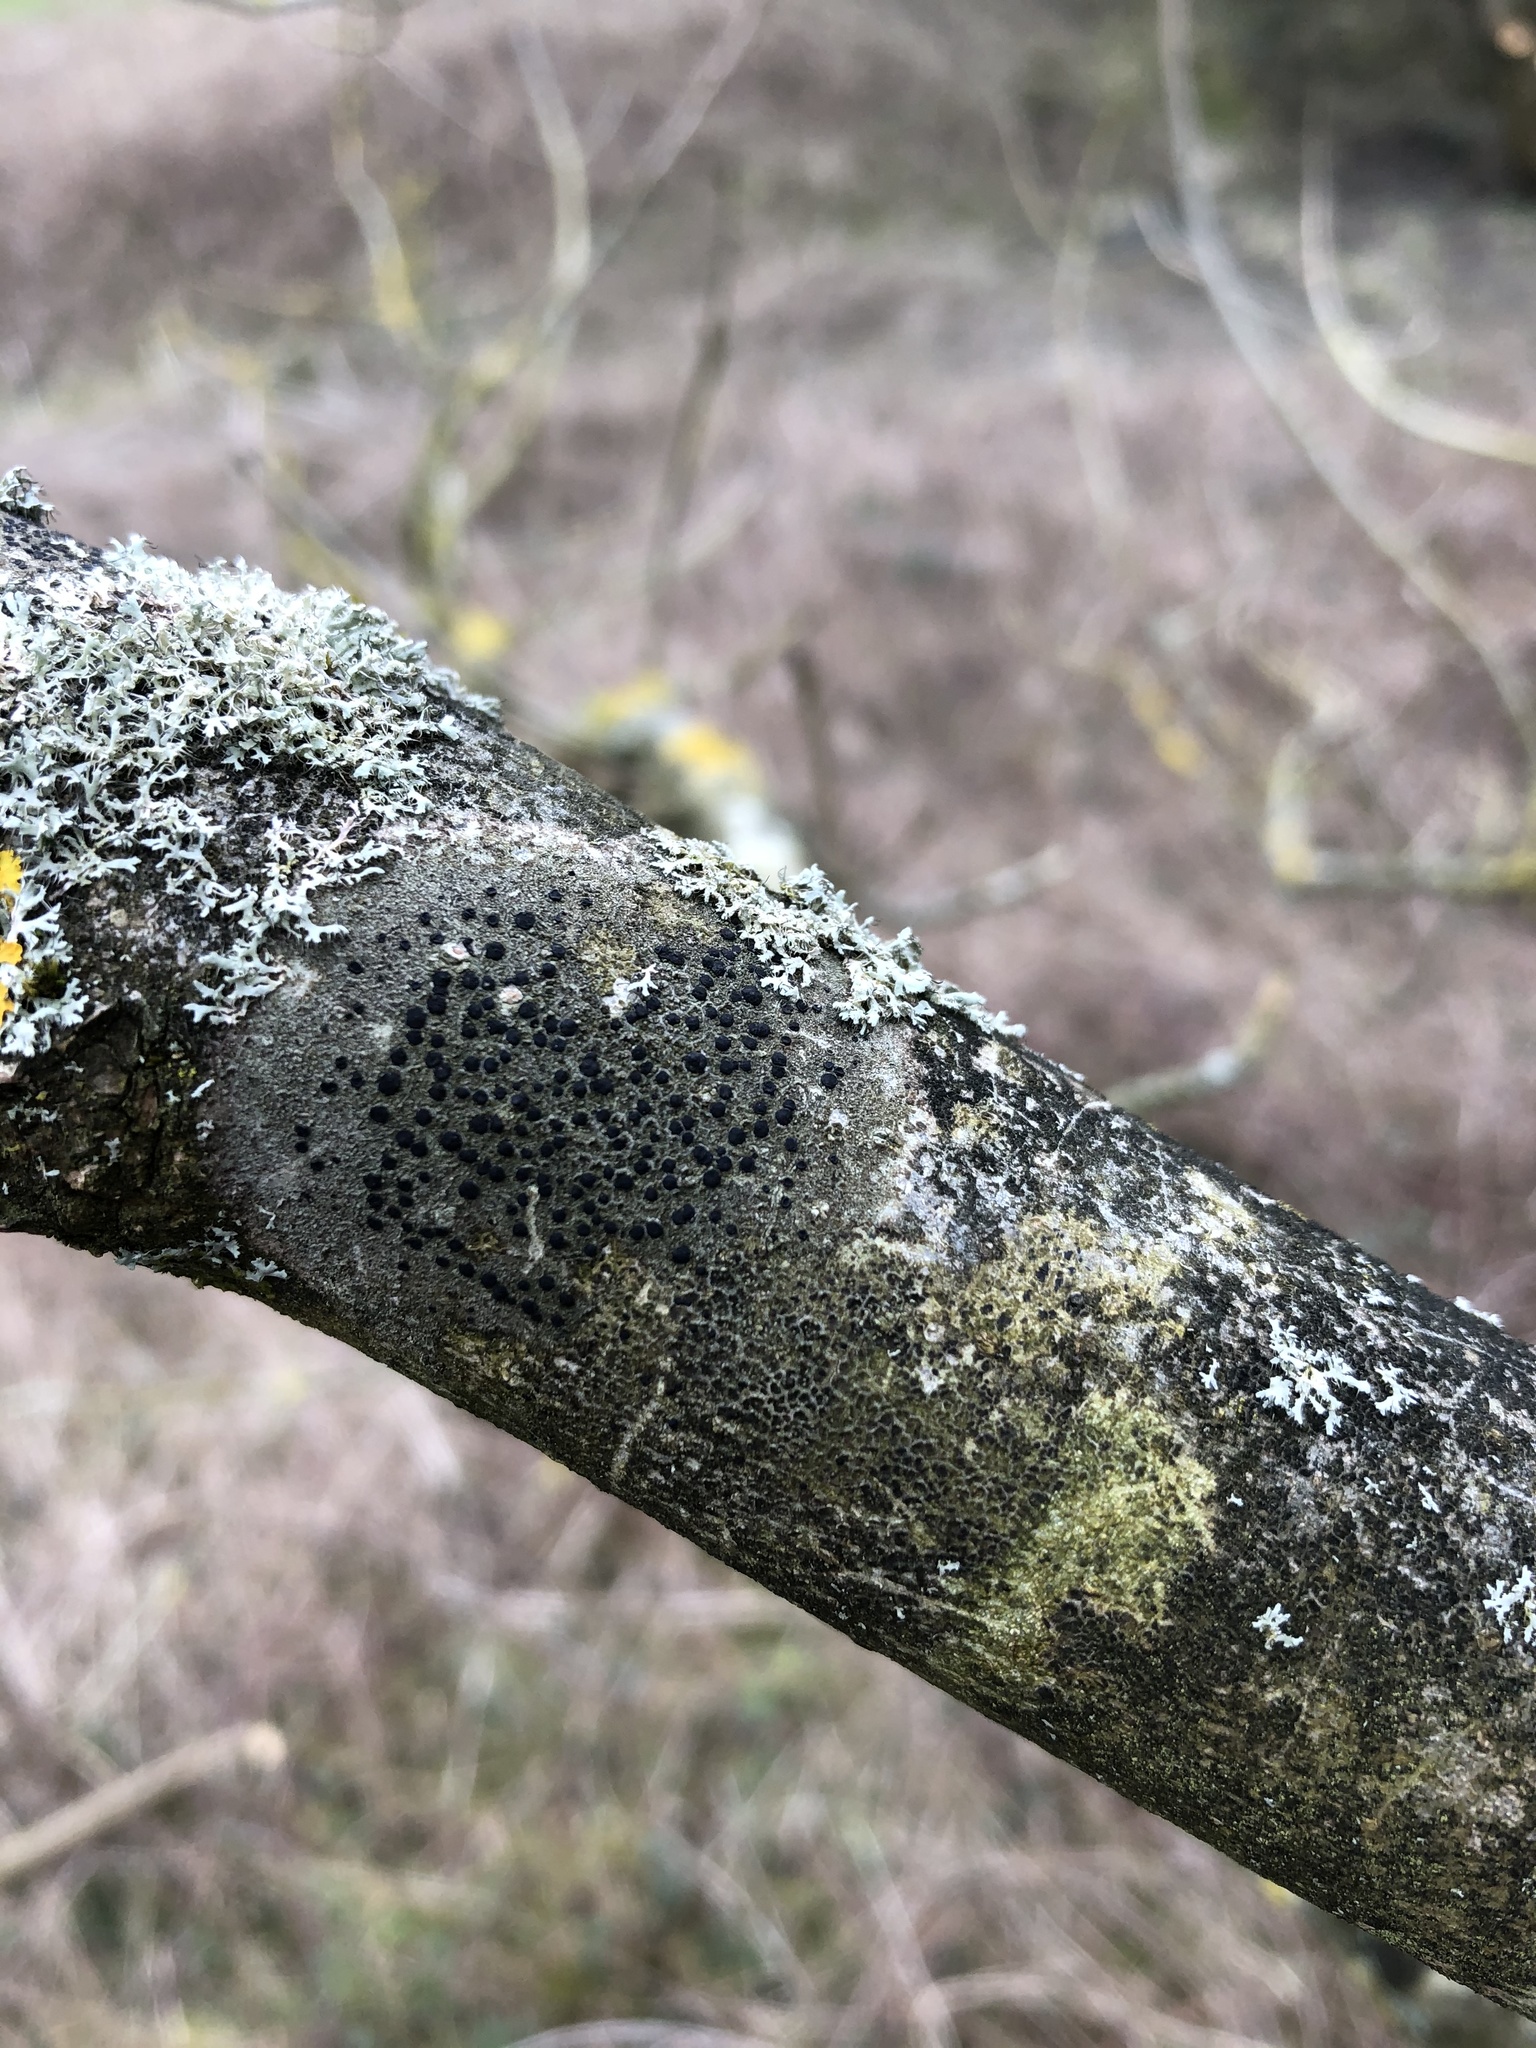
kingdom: Fungi
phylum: Ascomycota
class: Lecanoromycetes
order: Lecanorales
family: Lecanoraceae
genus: Lecidella
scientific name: Lecidella elaeochroma
